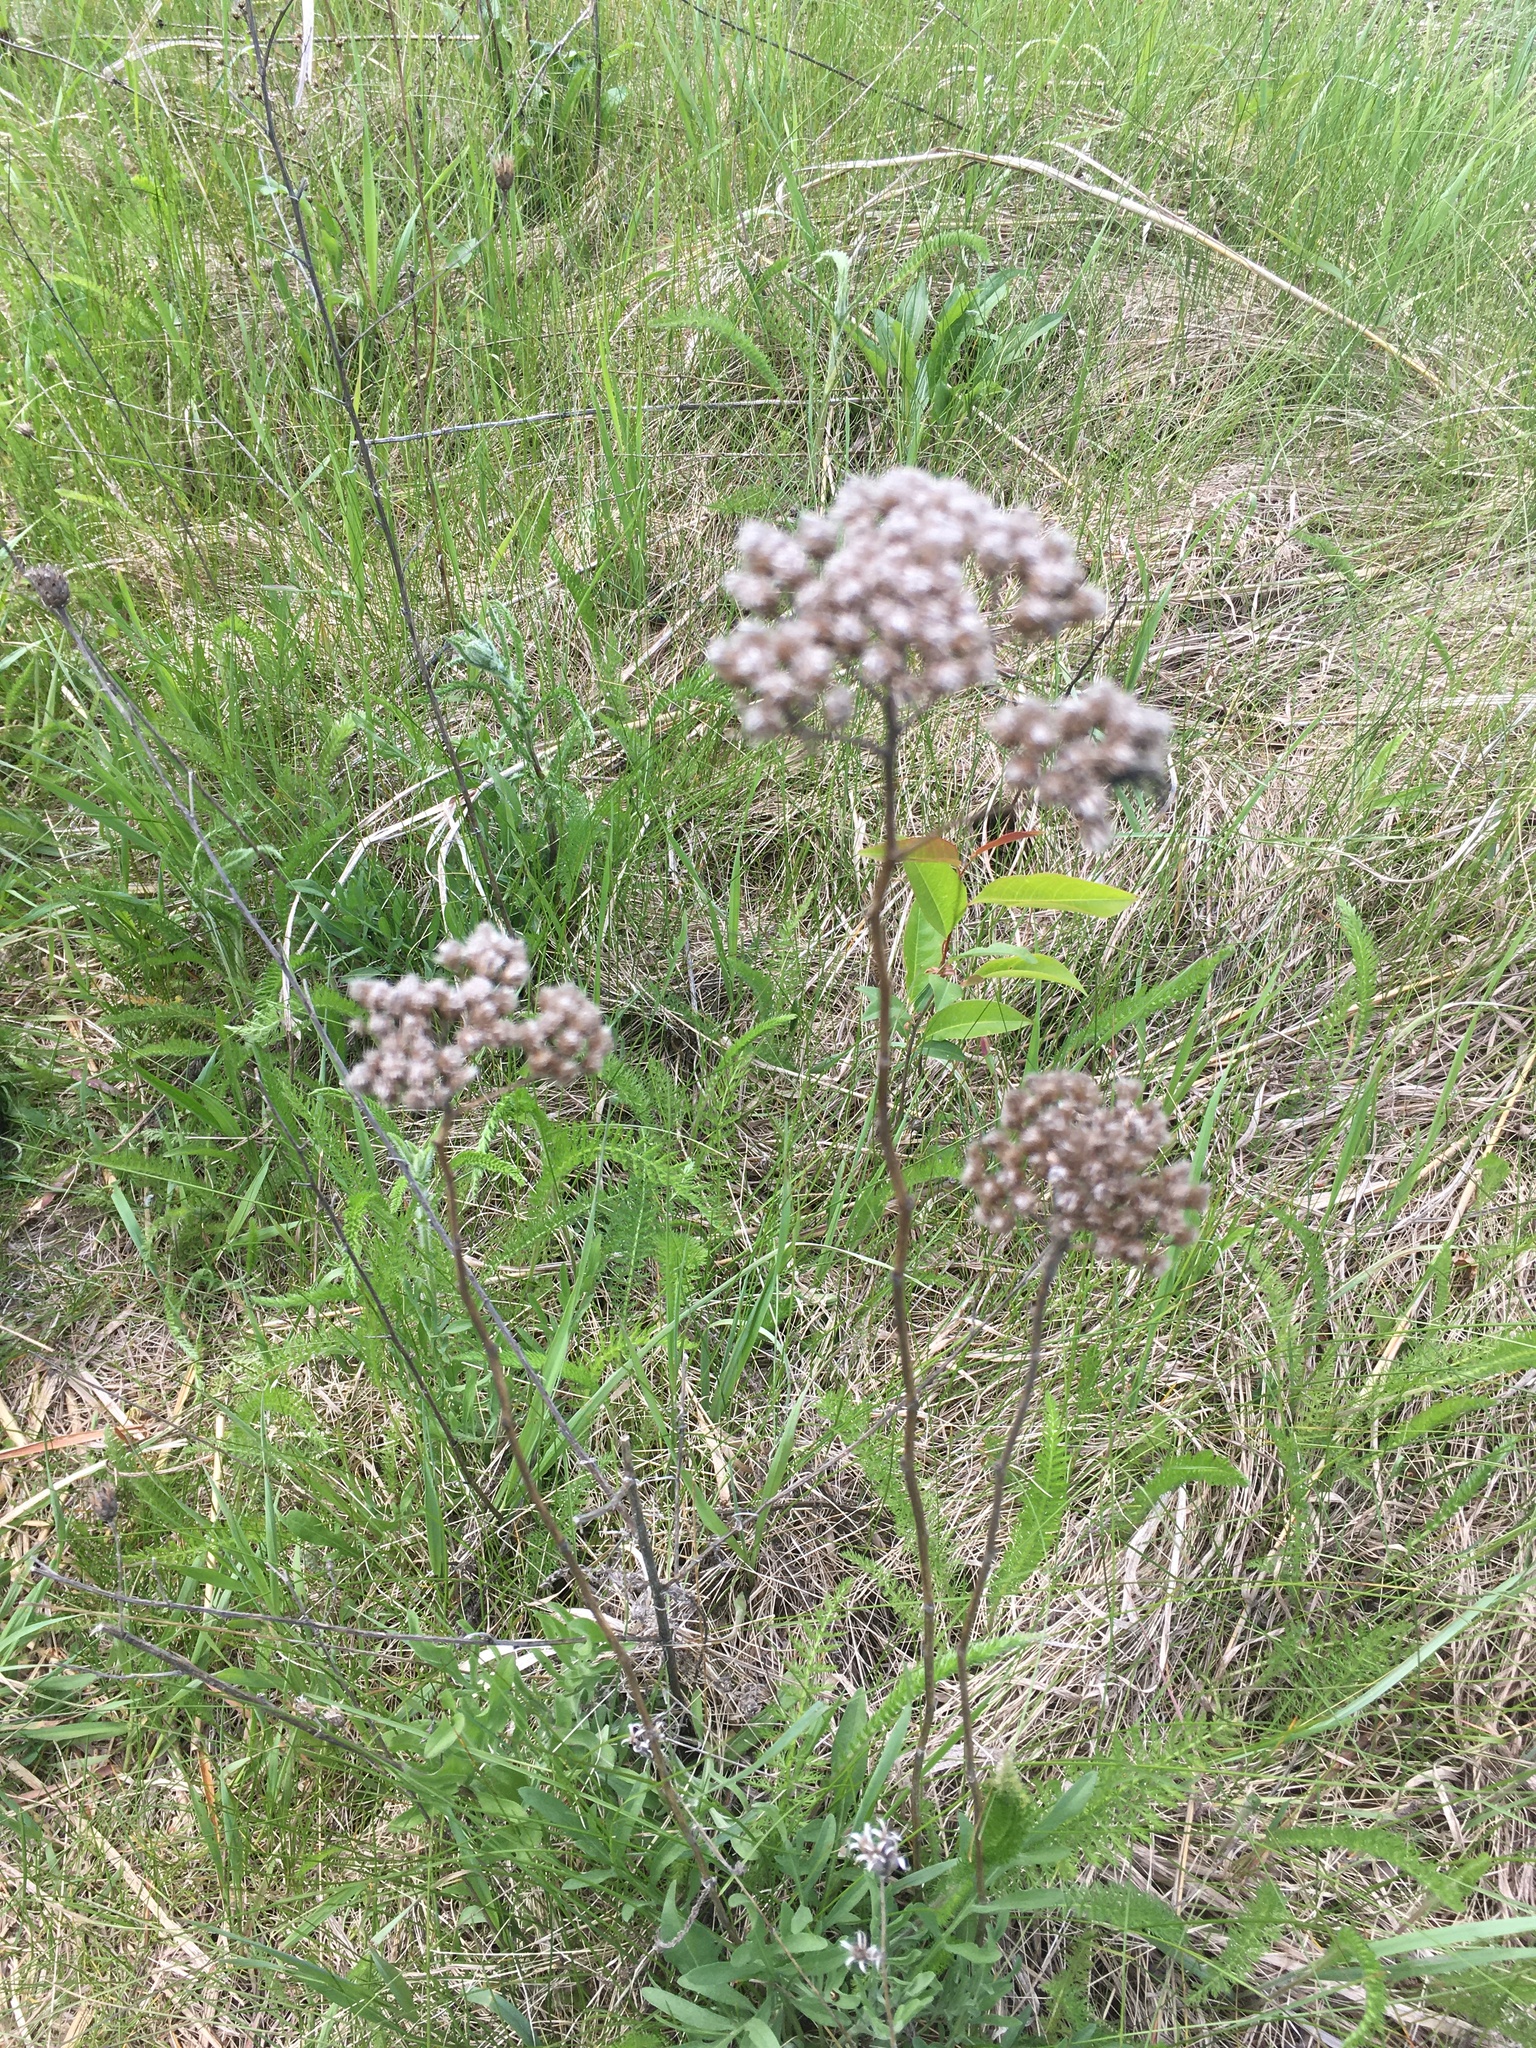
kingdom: Plantae
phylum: Tracheophyta
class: Magnoliopsida
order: Asterales
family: Asteraceae
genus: Achillea
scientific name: Achillea millefolium
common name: Yarrow
